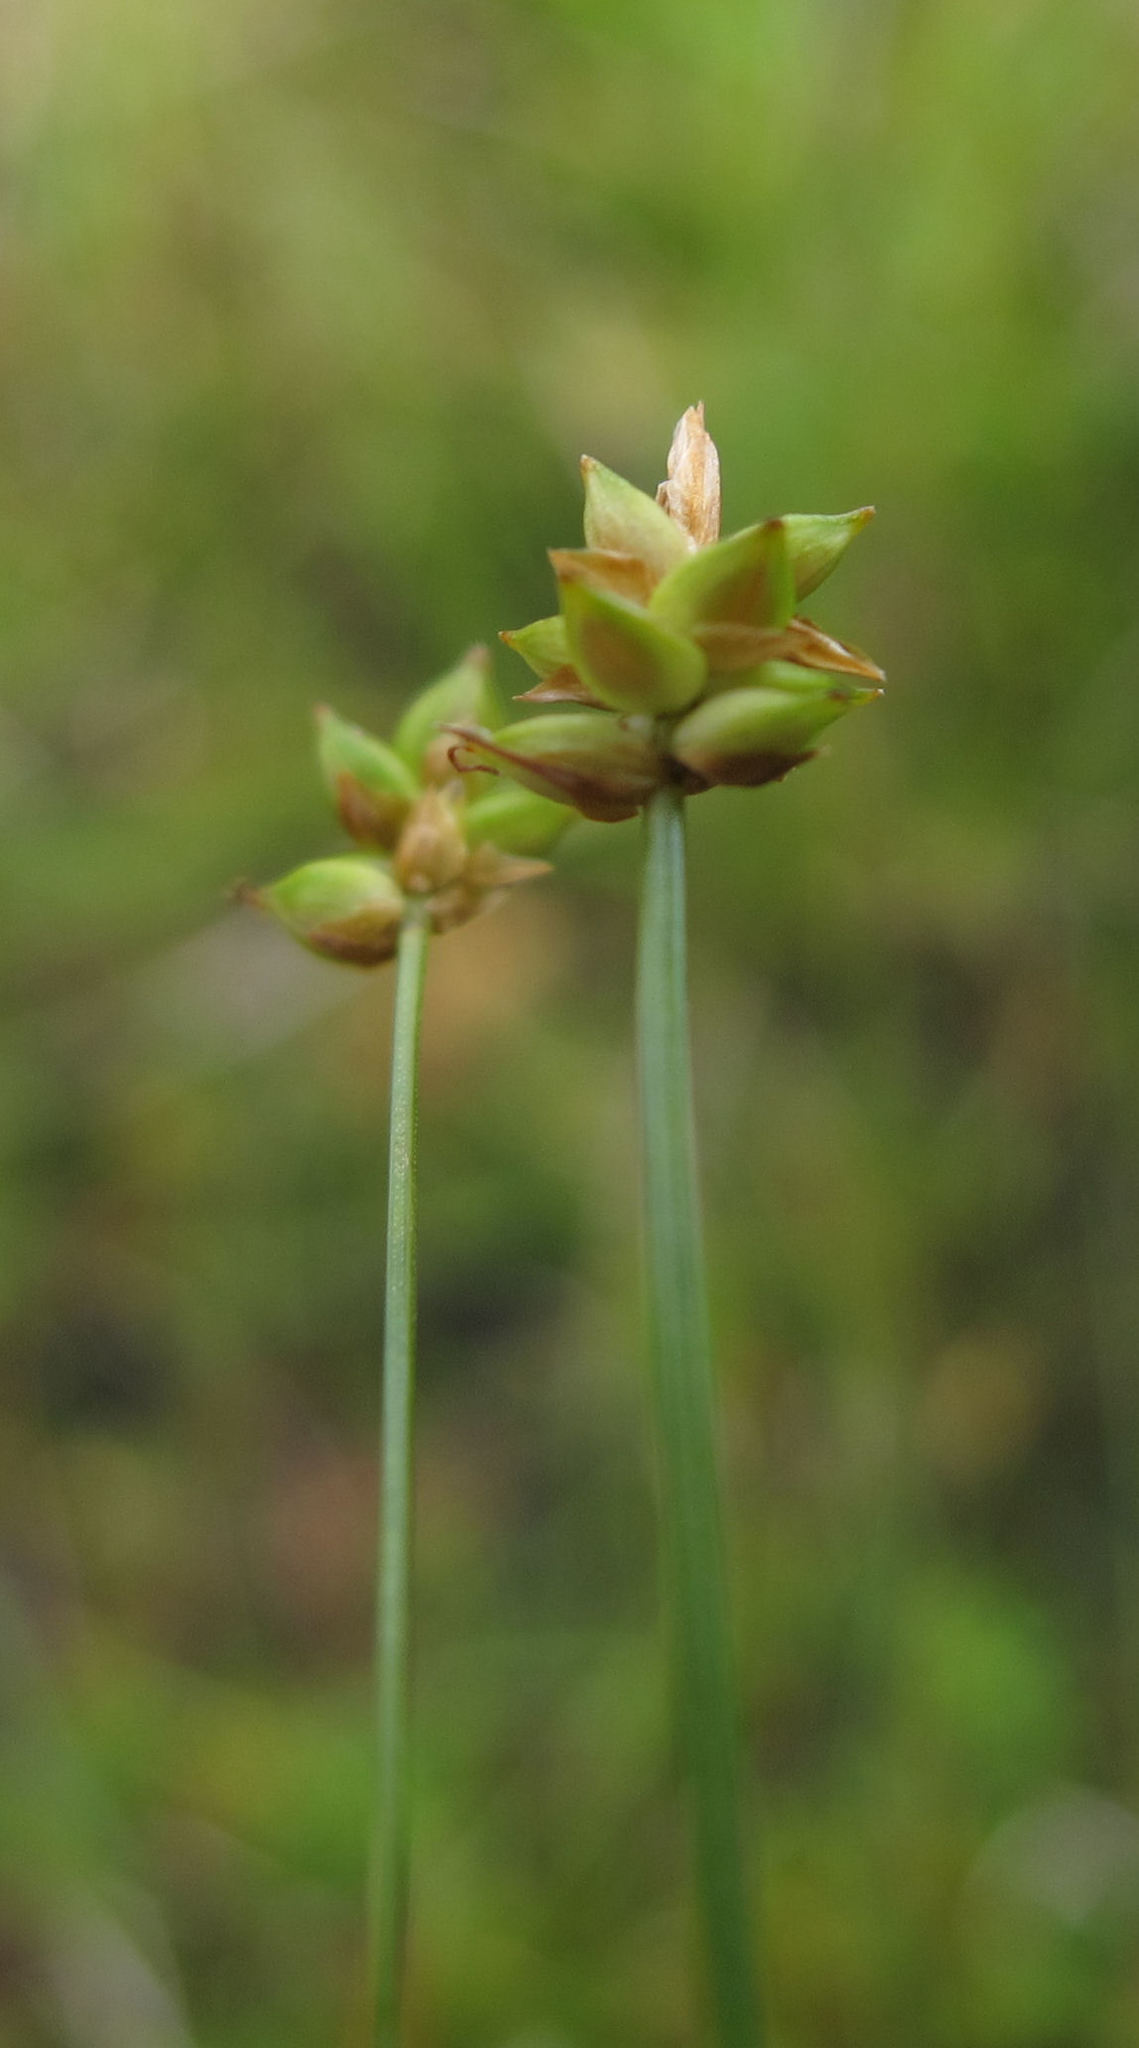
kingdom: Plantae
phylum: Tracheophyta
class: Liliopsida
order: Poales
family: Cyperaceae
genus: Carex
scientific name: Carex capillacea
